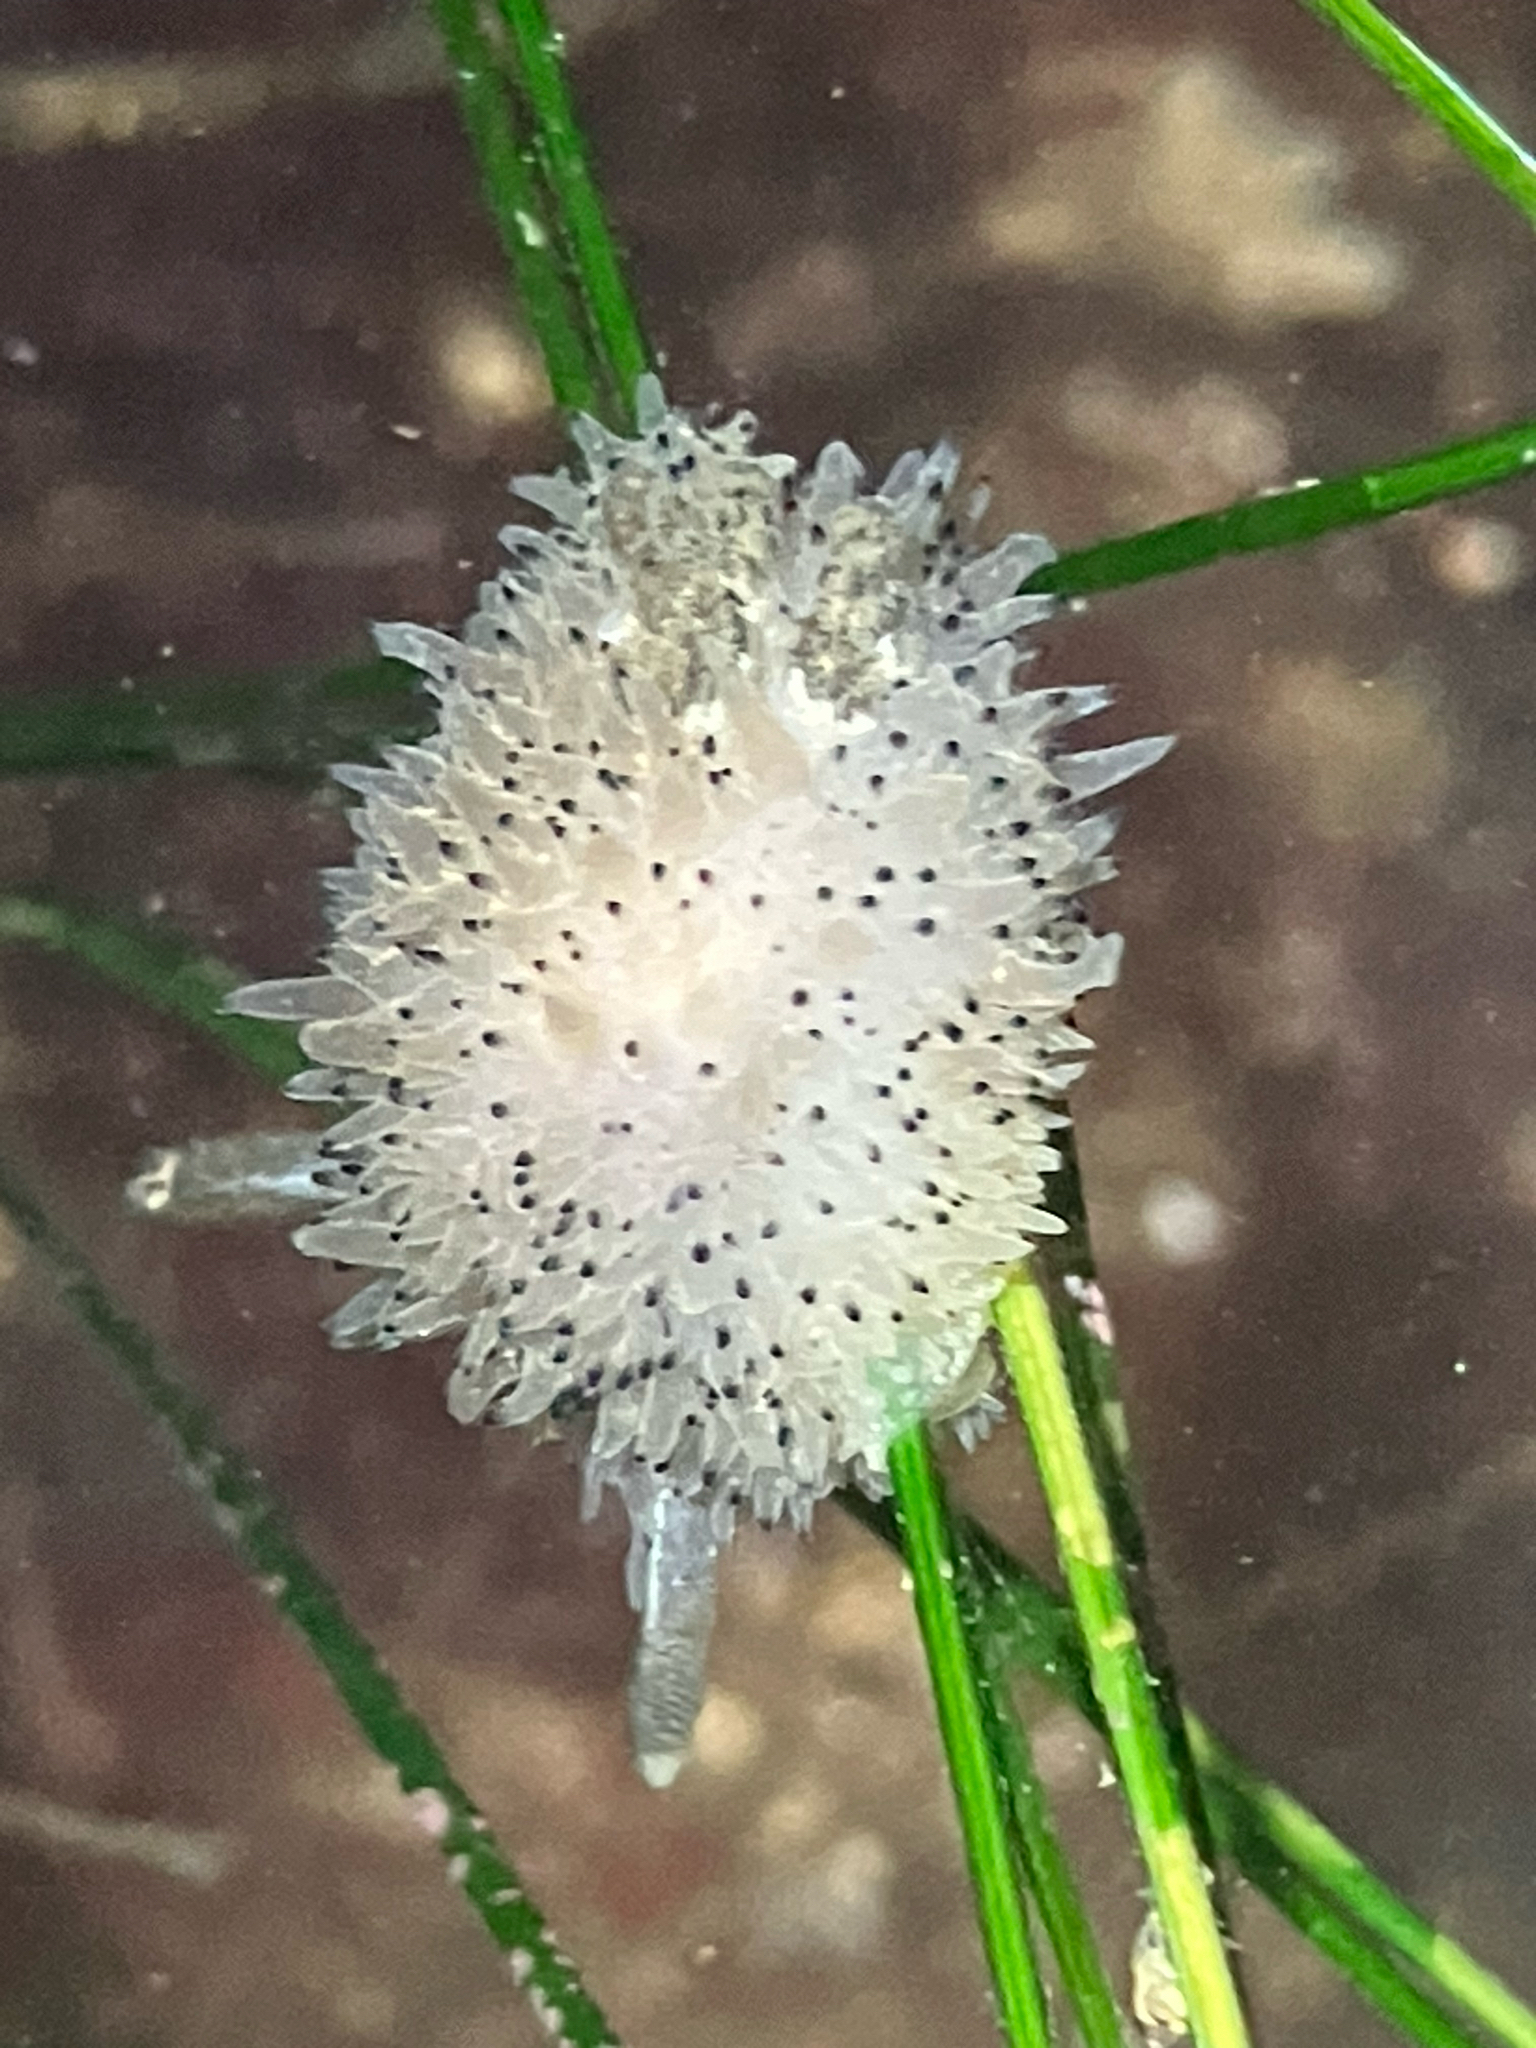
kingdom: Animalia
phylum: Mollusca
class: Gastropoda
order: Nudibranchia
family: Onchidorididae
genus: Acanthodoris
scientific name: Acanthodoris rhodoceras
